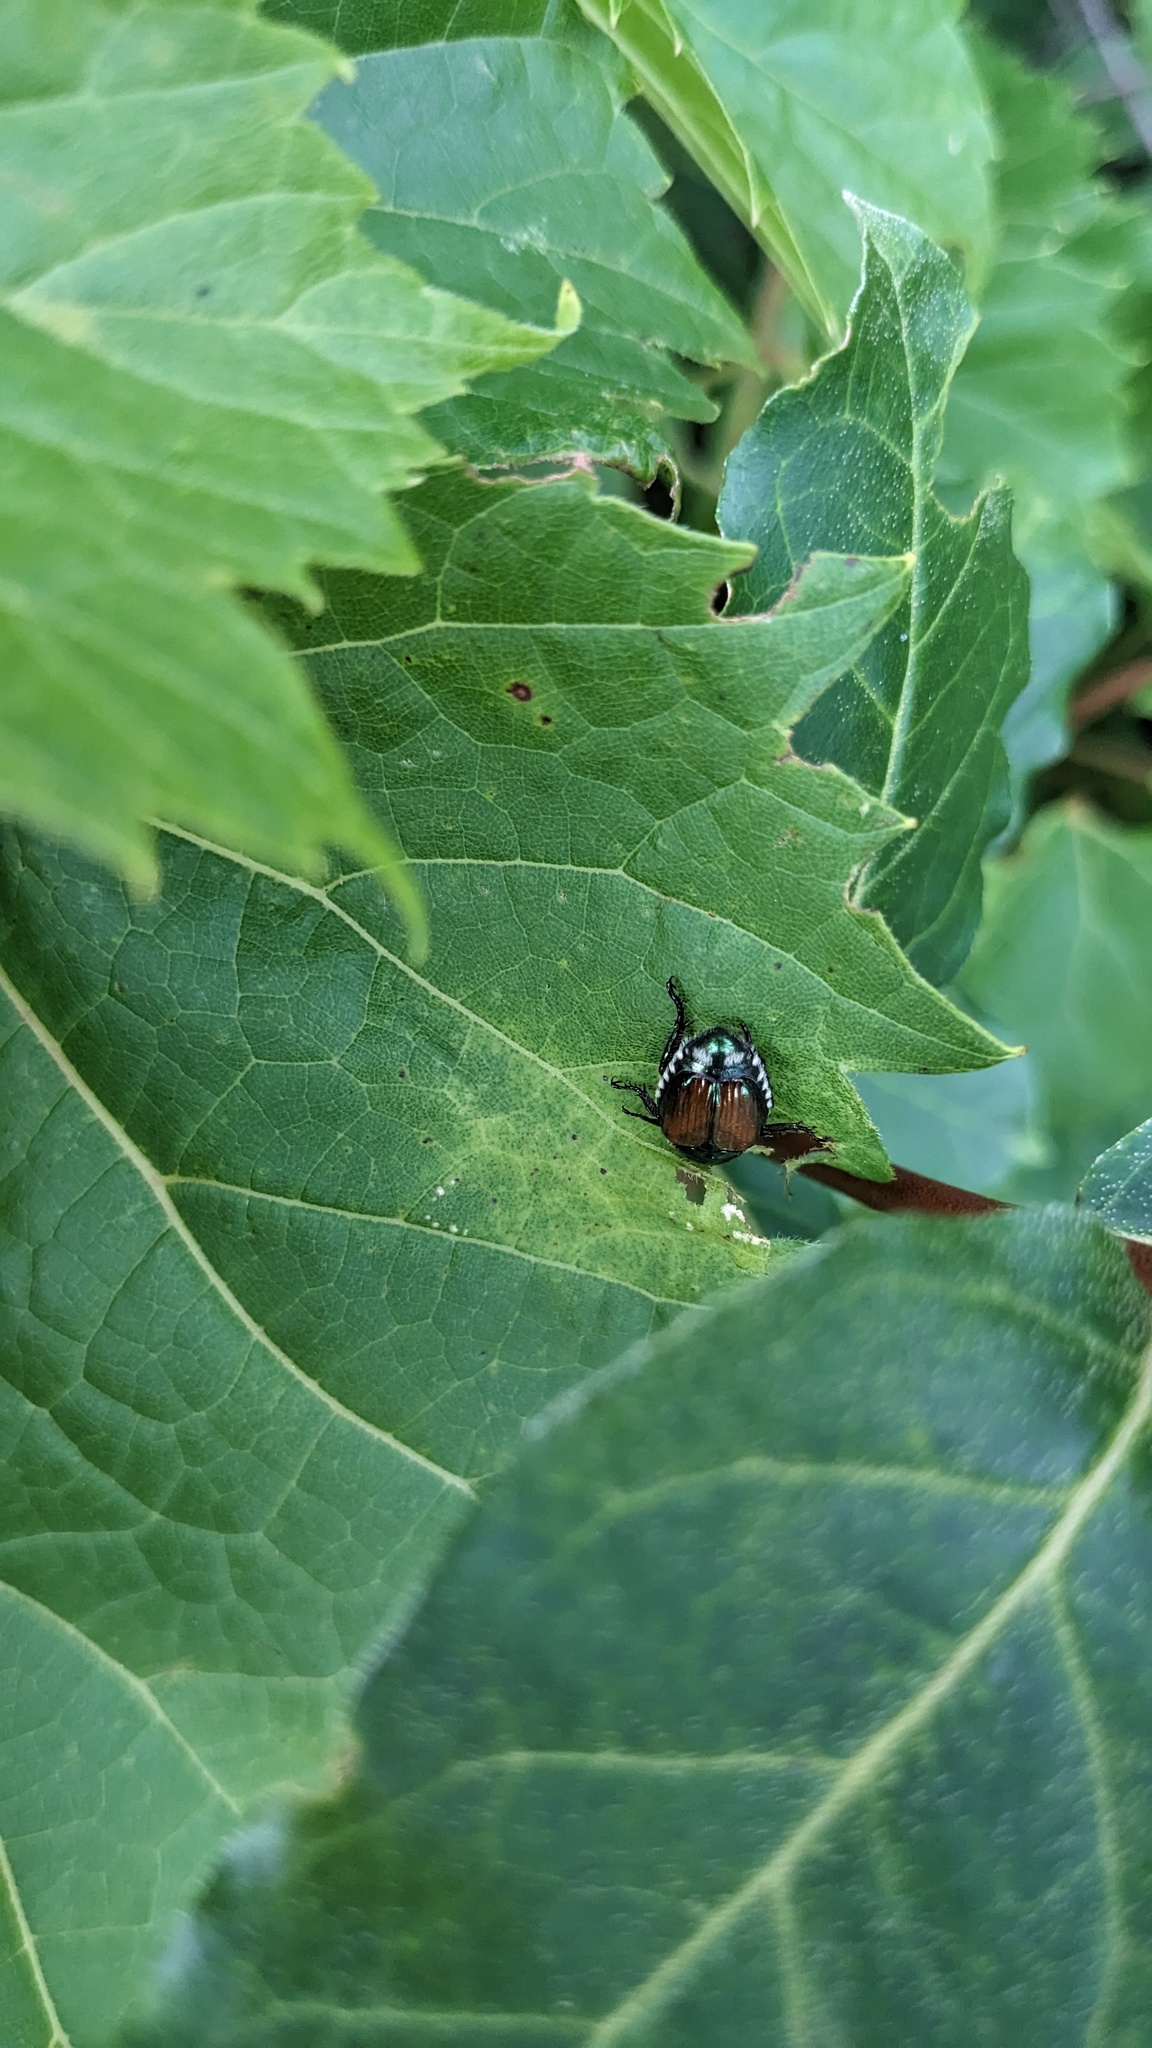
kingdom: Animalia
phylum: Arthropoda
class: Insecta
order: Coleoptera
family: Scarabaeidae
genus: Popillia
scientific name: Popillia japonica
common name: Japanese beetle
